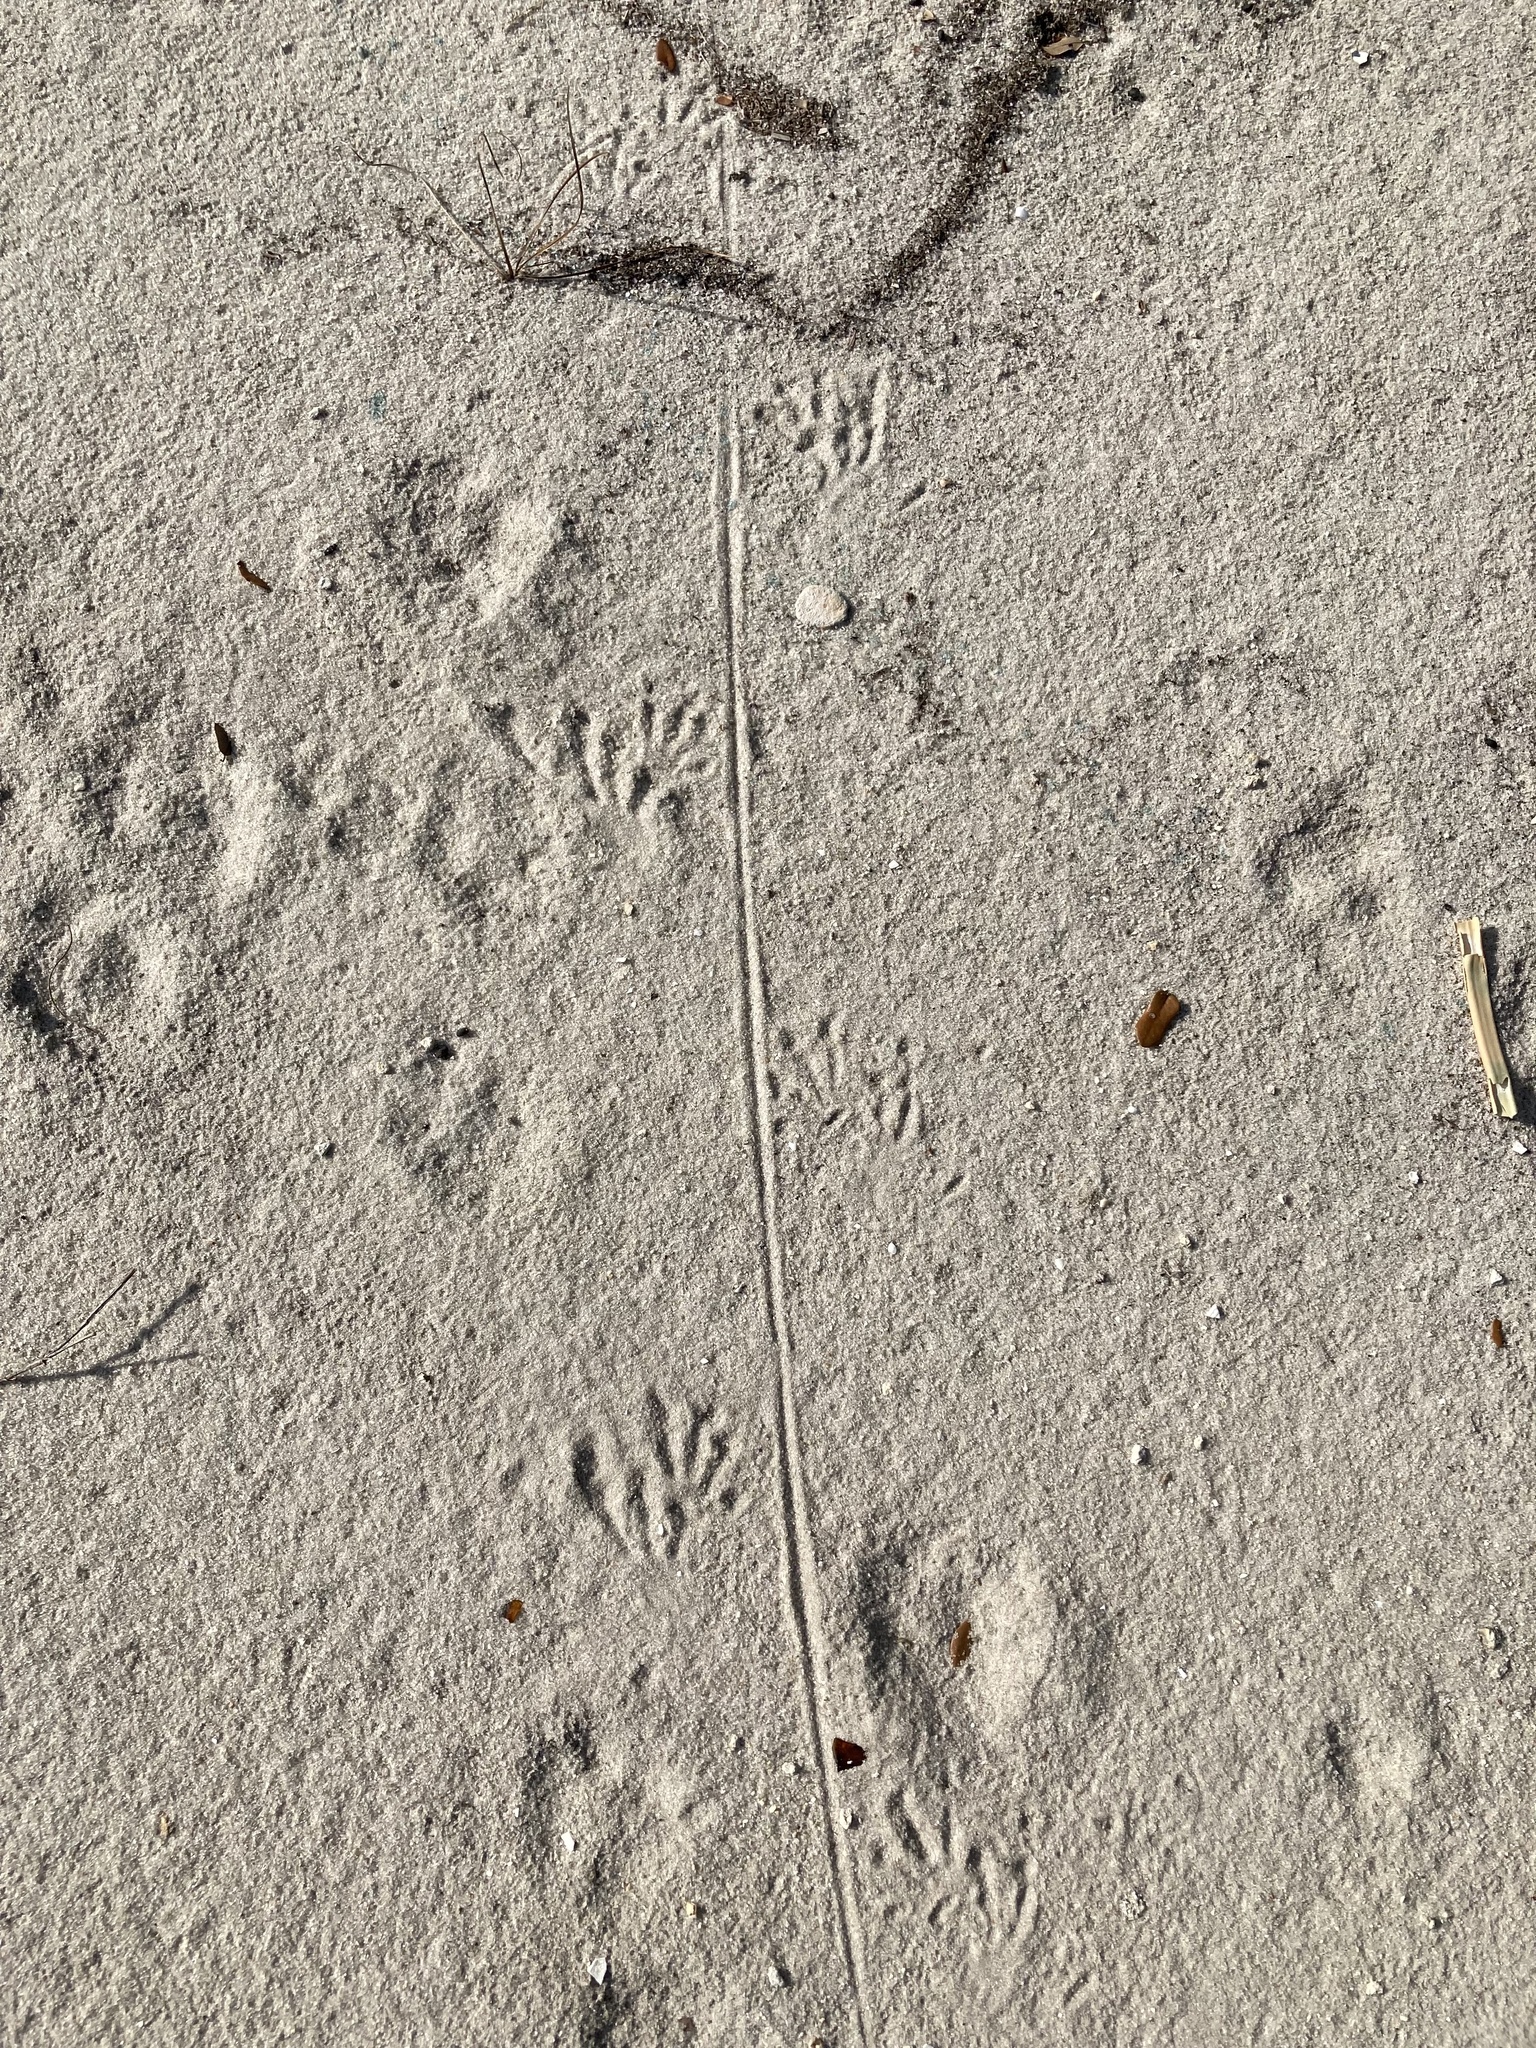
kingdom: Animalia
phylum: Chordata
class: Squamata
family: Iguanidae
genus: Iguana
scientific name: Iguana iguana
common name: Green iguana
